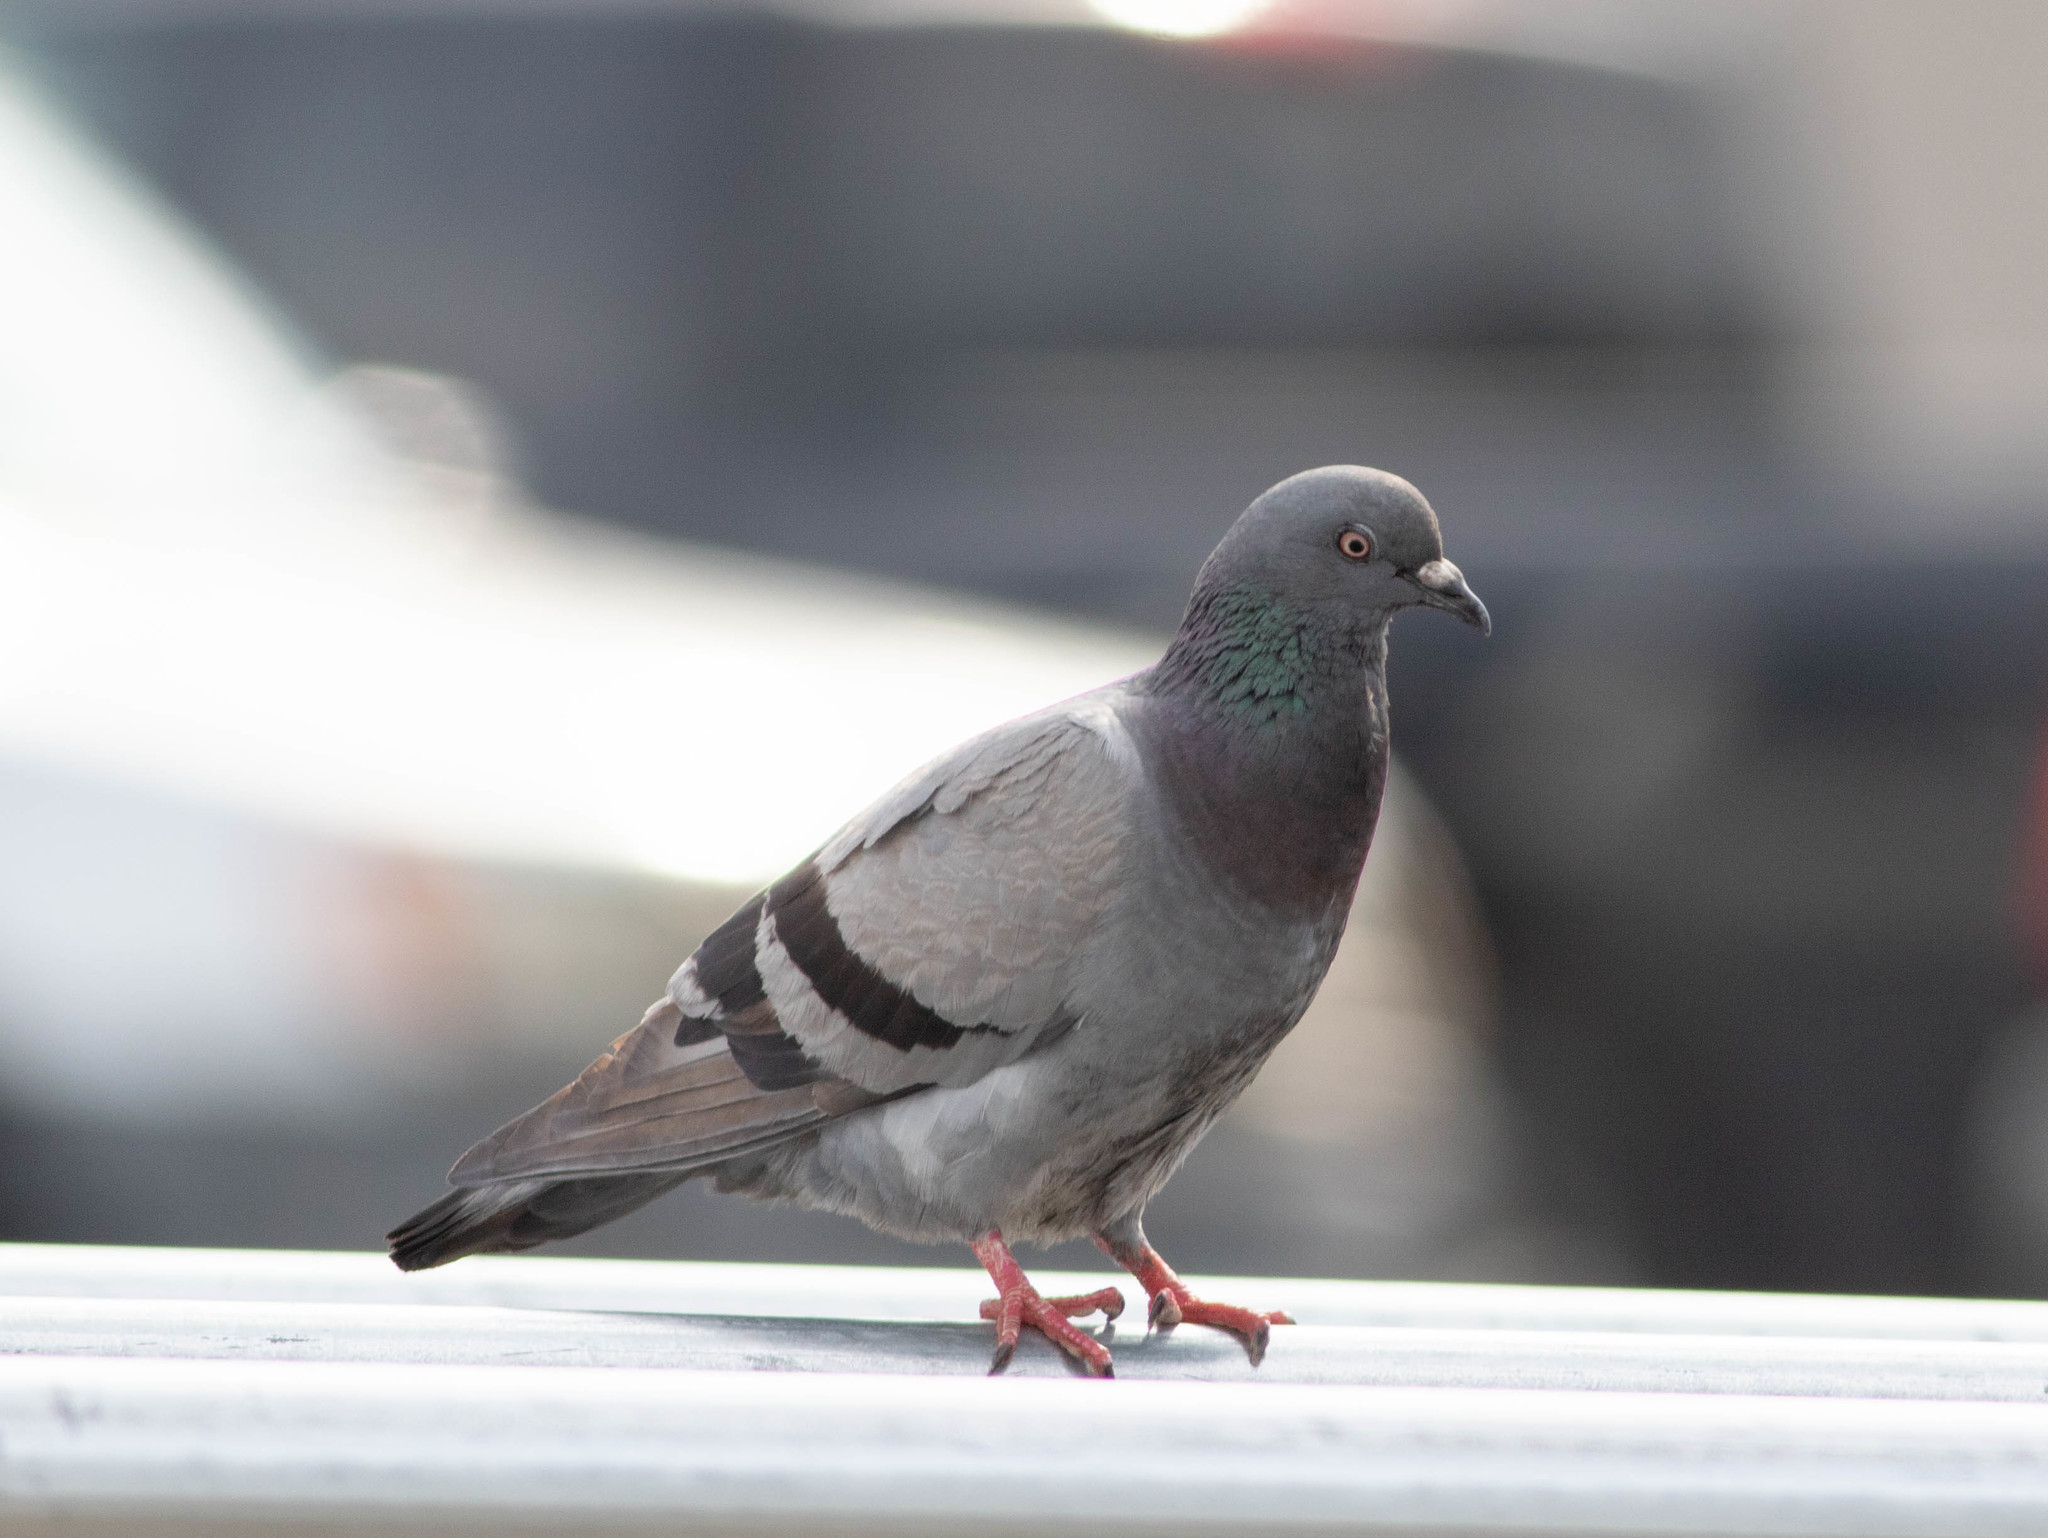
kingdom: Animalia
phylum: Chordata
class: Aves
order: Columbiformes
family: Columbidae
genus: Columba
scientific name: Columba livia
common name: Rock pigeon
